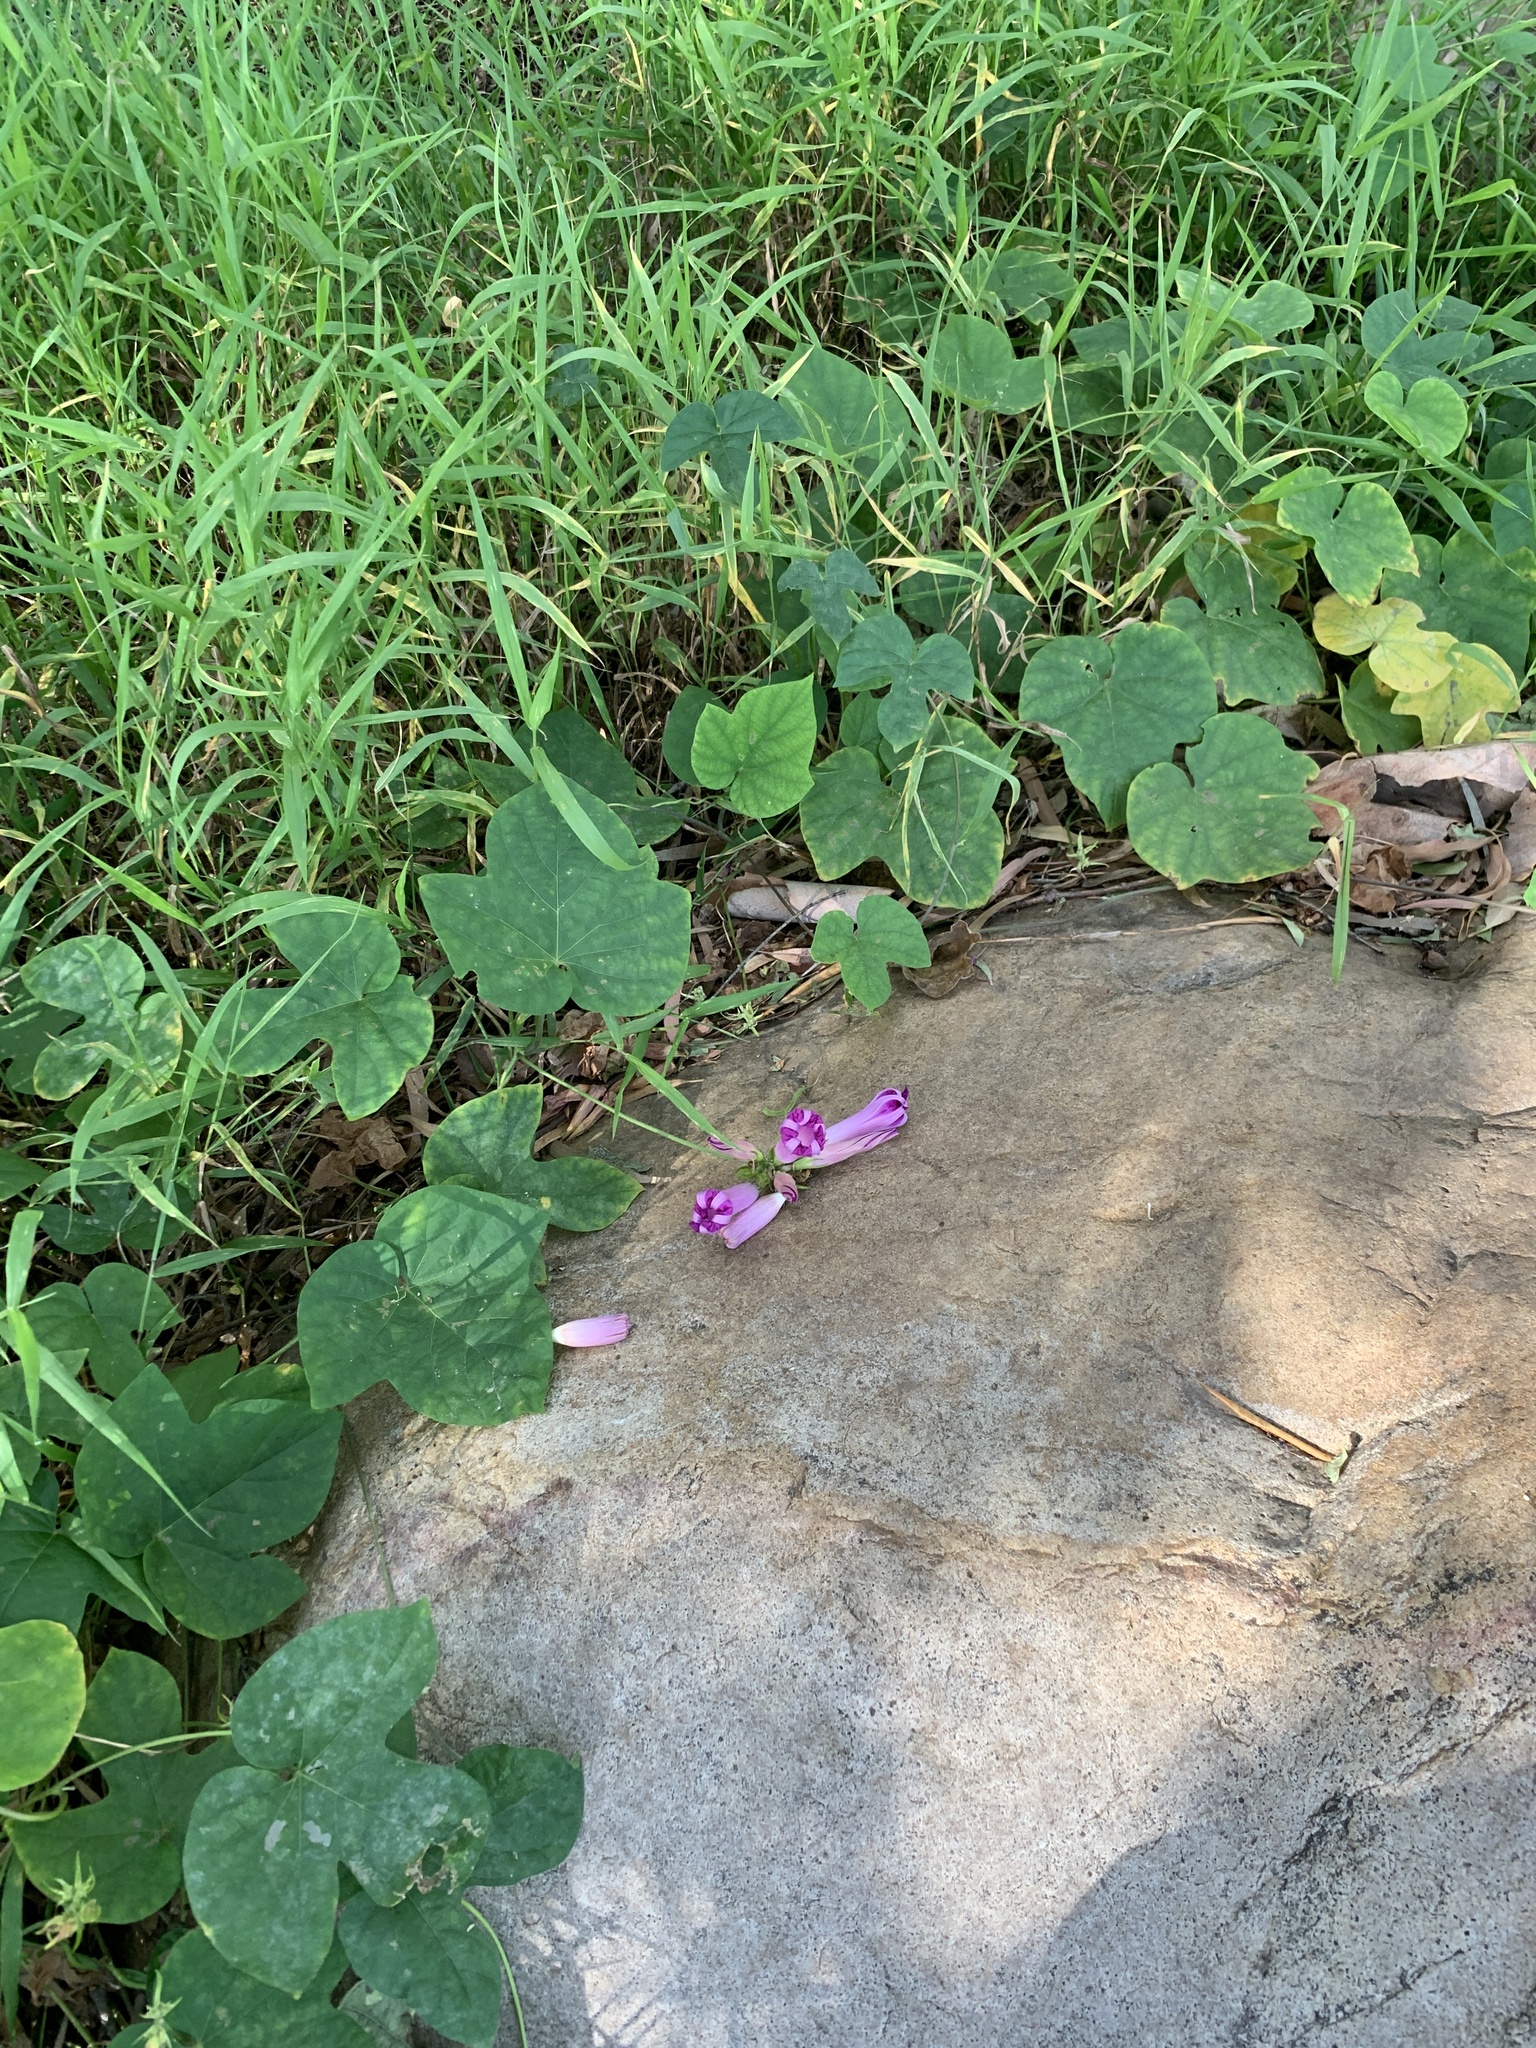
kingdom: Plantae
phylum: Tracheophyta
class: Magnoliopsida
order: Solanales
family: Convolvulaceae
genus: Ipomoea
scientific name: Ipomoea indica
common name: Blue dawnflower
